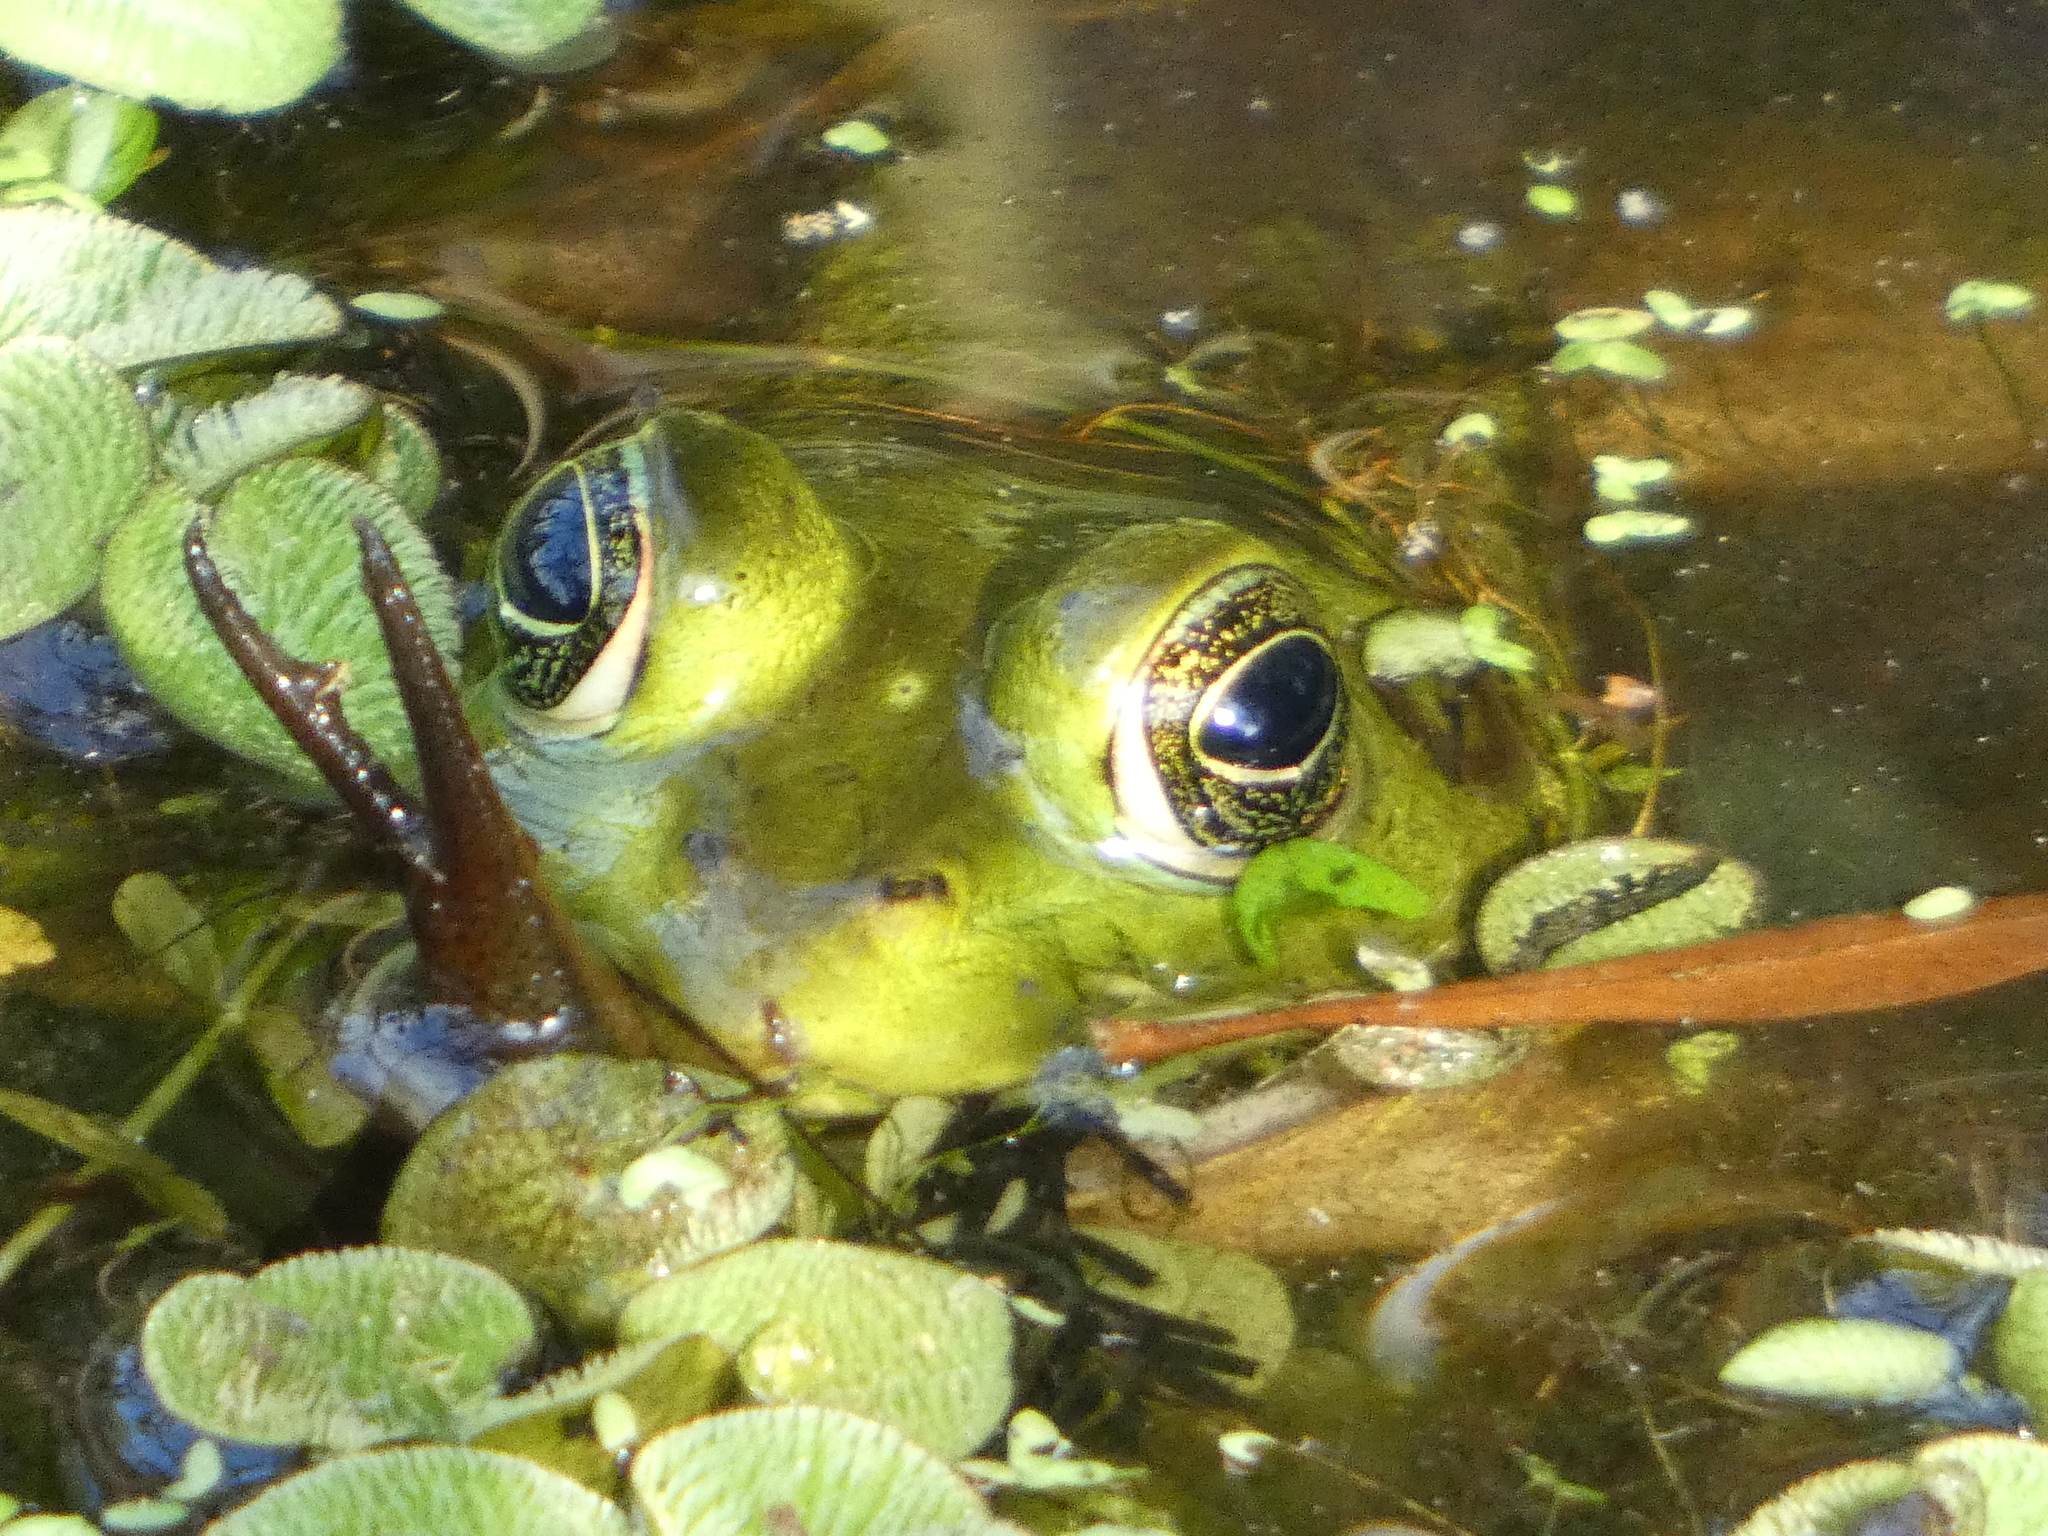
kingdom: Animalia
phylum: Chordata
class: Amphibia
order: Anura
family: Ranidae
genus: Lithobates
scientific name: Lithobates grylio
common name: Pig frog
